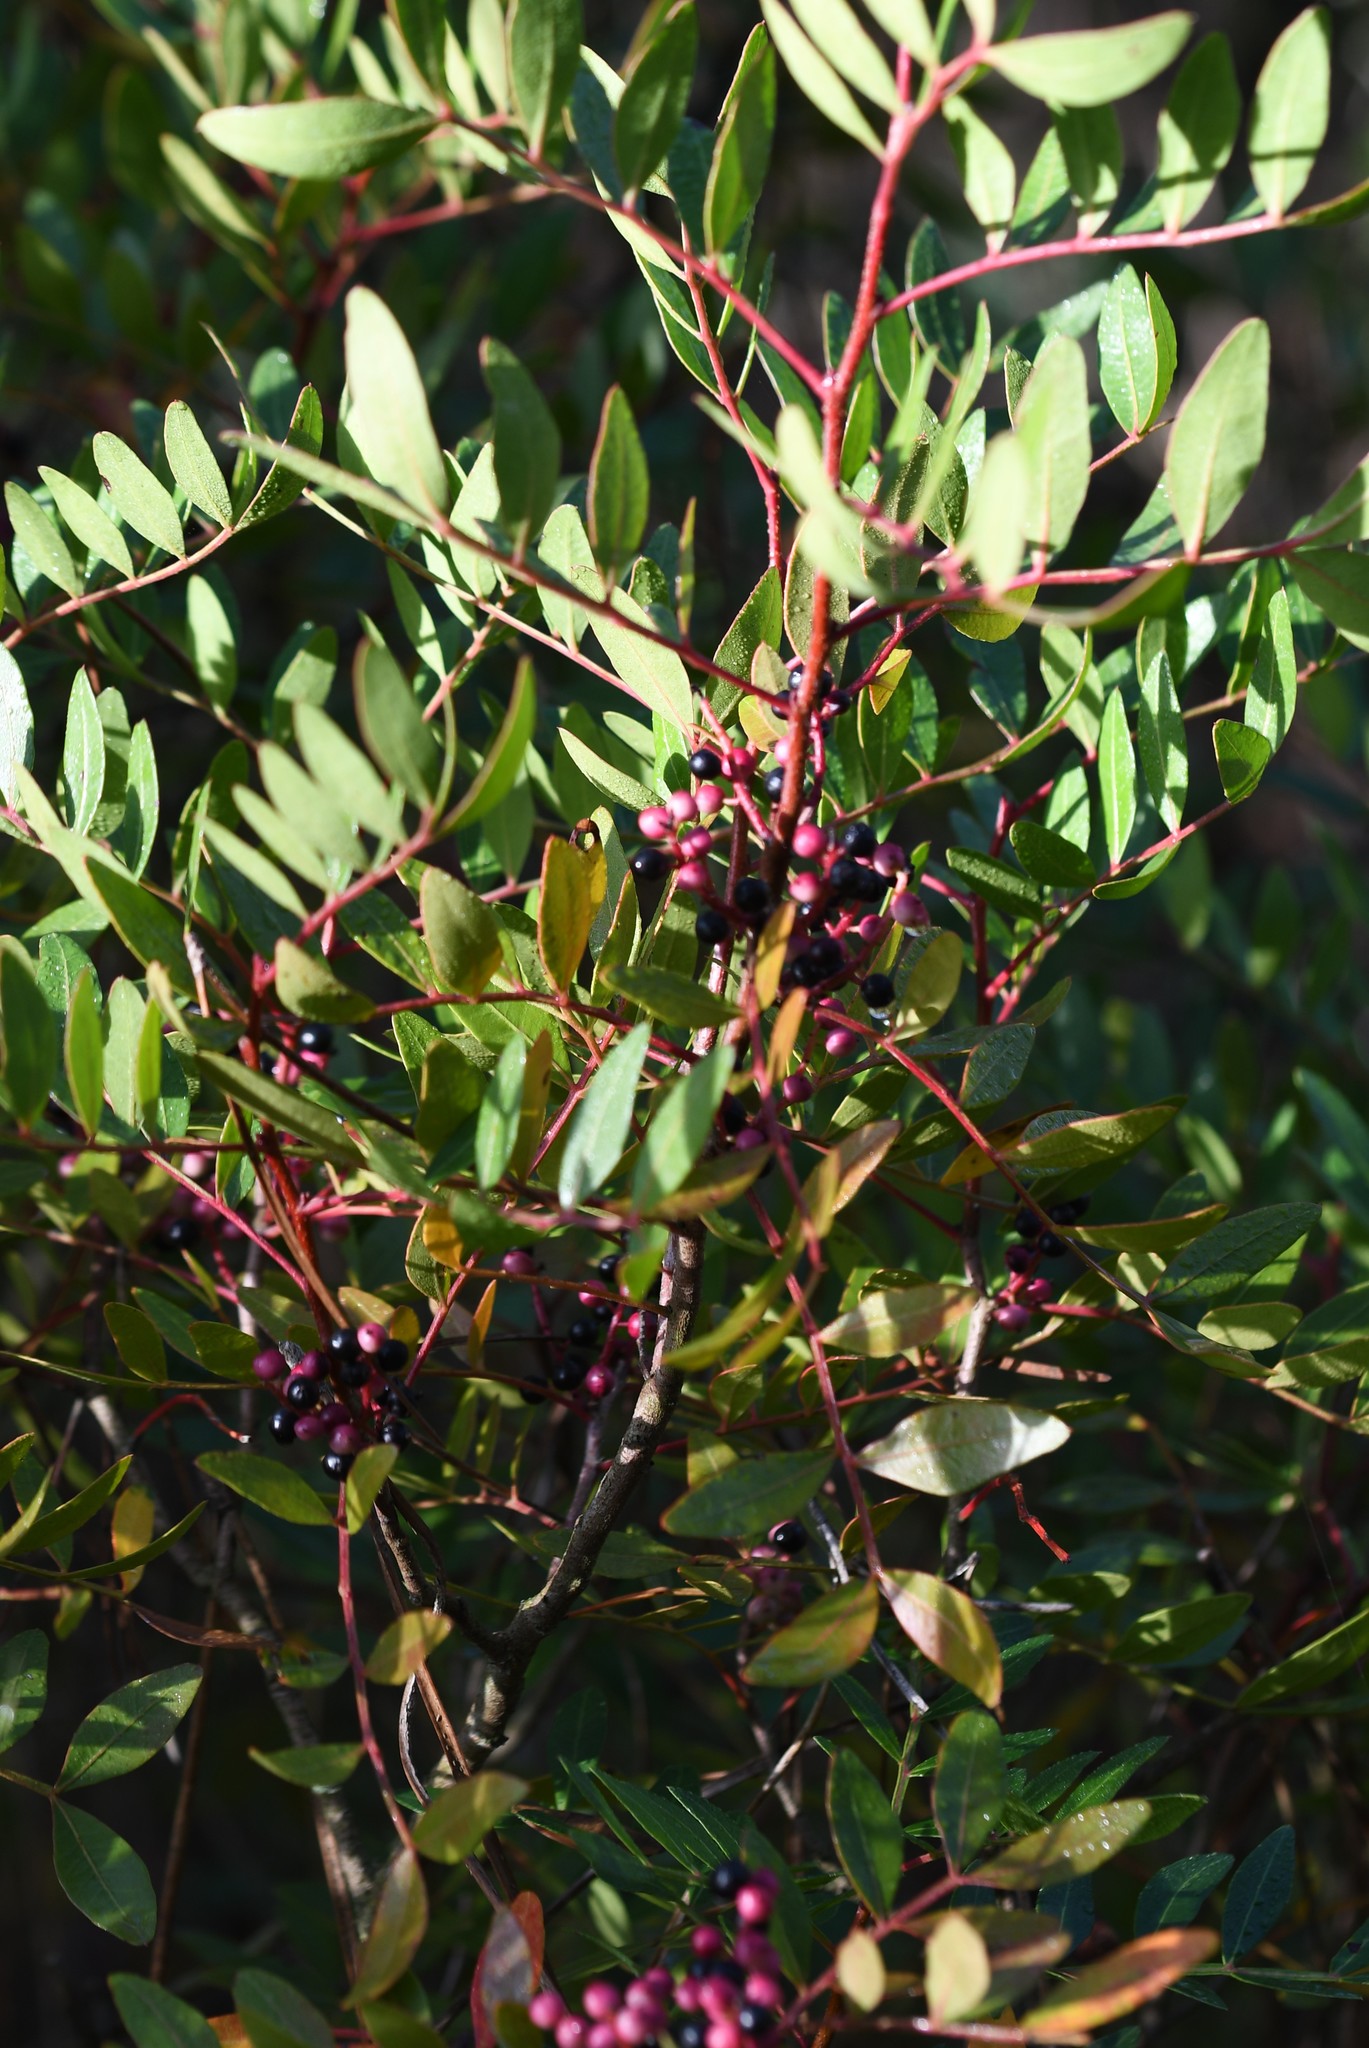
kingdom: Plantae
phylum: Tracheophyta
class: Magnoliopsida
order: Sapindales
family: Anacardiaceae
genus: Pistacia
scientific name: Pistacia lentiscus
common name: Lentisk
